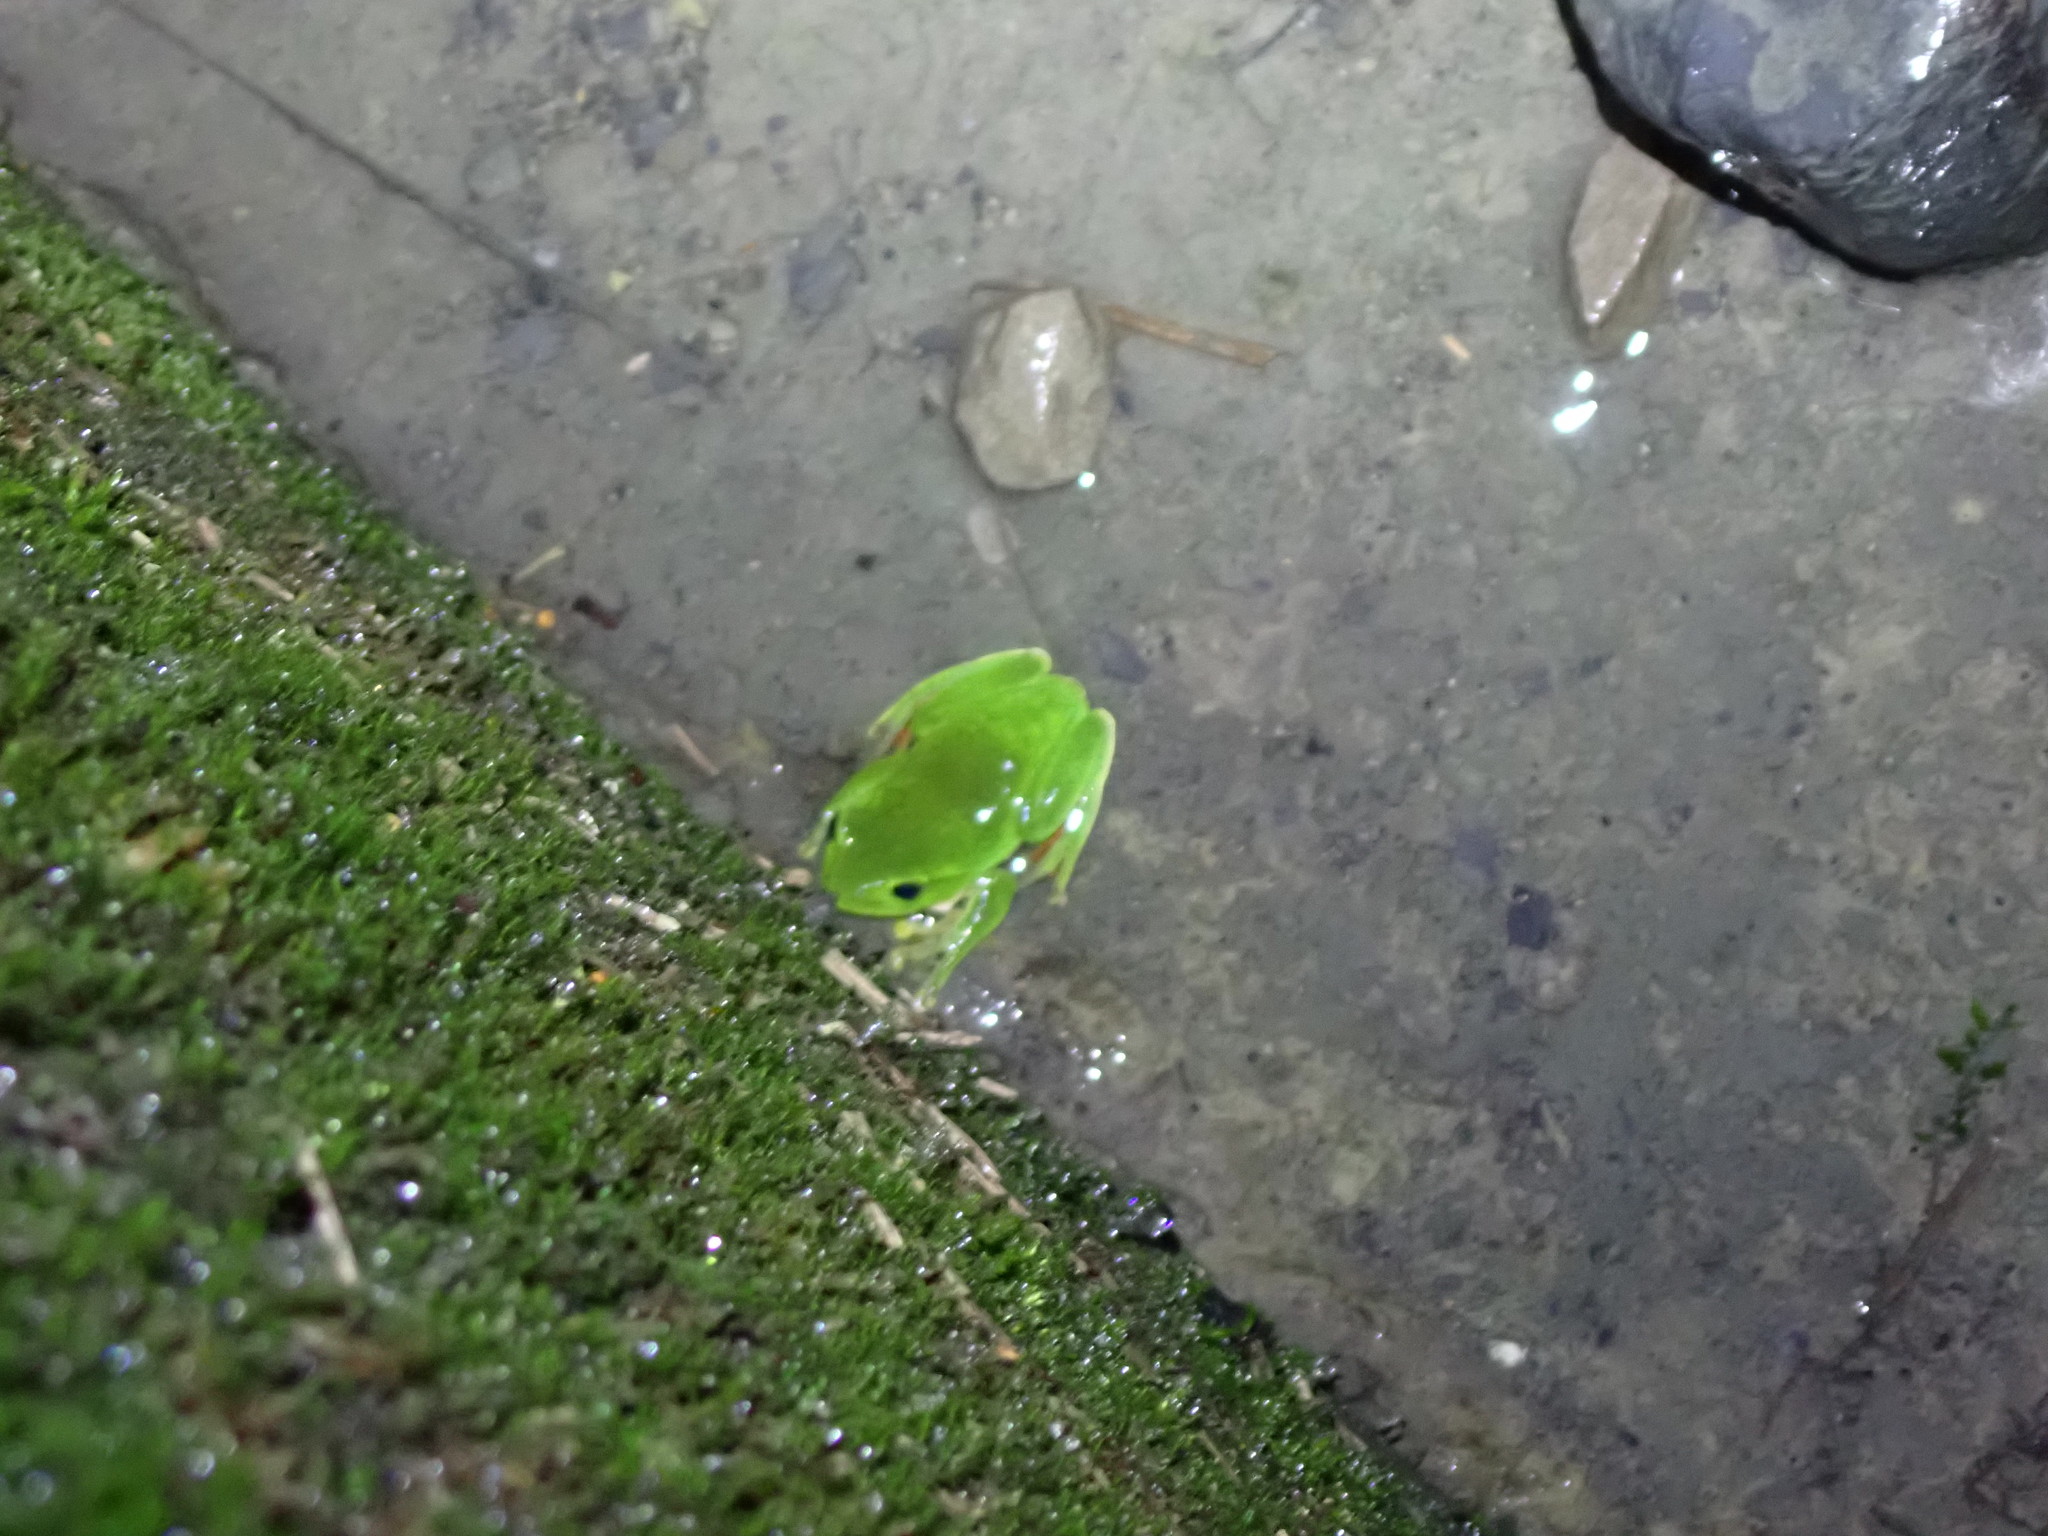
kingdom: Animalia
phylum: Chordata
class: Amphibia
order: Anura
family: Rhacophoridae
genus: Zhangixalus
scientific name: Zhangixalus moltrechti
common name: Moltrecht's treefrog
